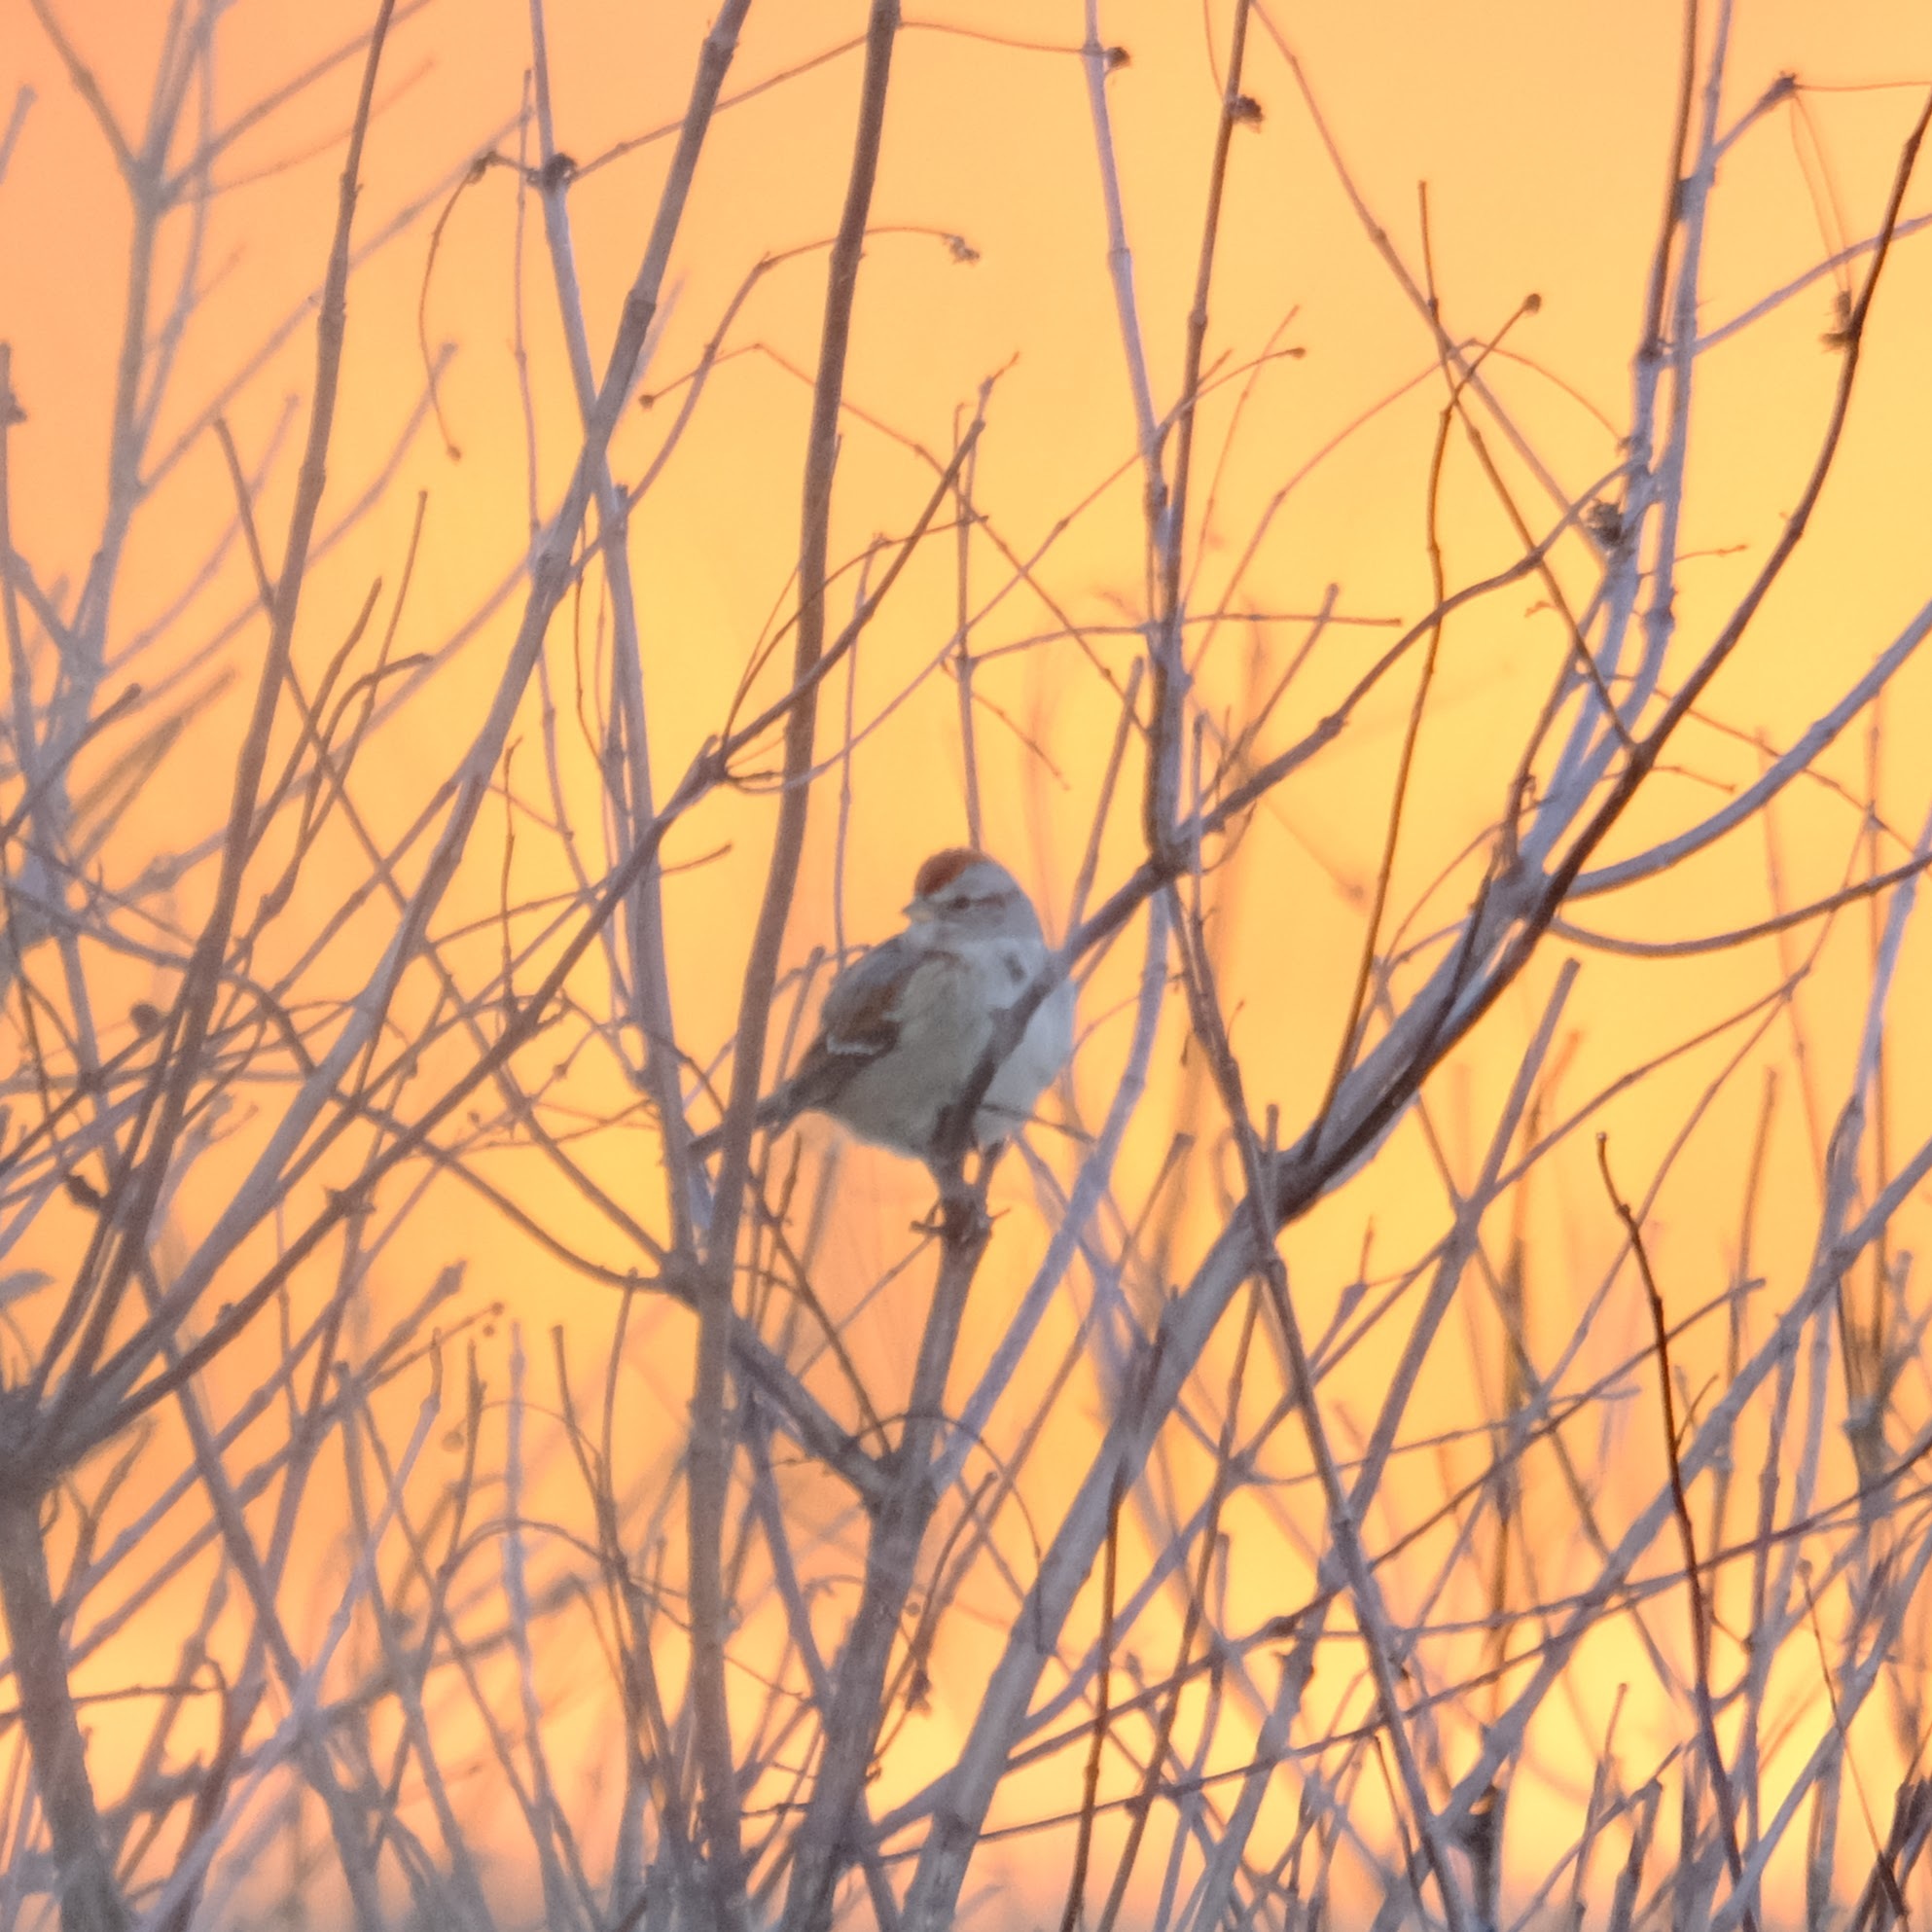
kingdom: Animalia
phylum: Chordata
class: Aves
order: Passeriformes
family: Passerellidae
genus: Spizelloides
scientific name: Spizelloides arborea
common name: American tree sparrow
